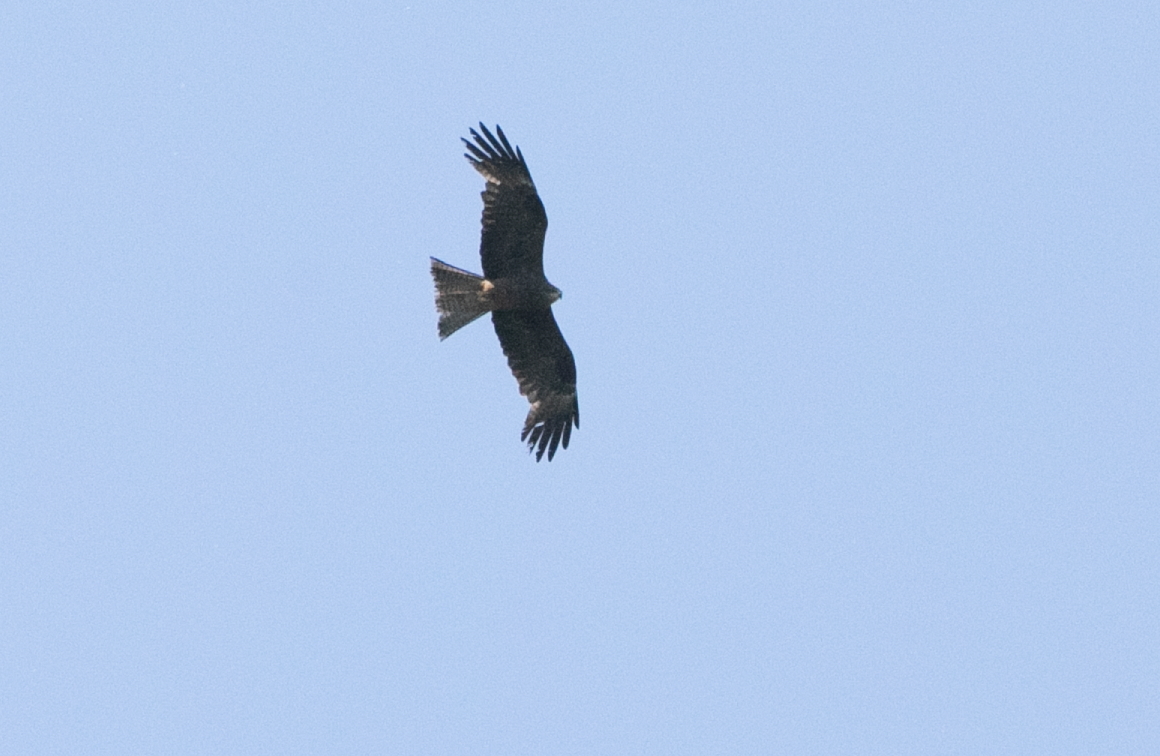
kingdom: Animalia
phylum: Chordata
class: Aves
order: Accipitriformes
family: Accipitridae
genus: Milvus
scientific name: Milvus migrans
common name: Black kite
